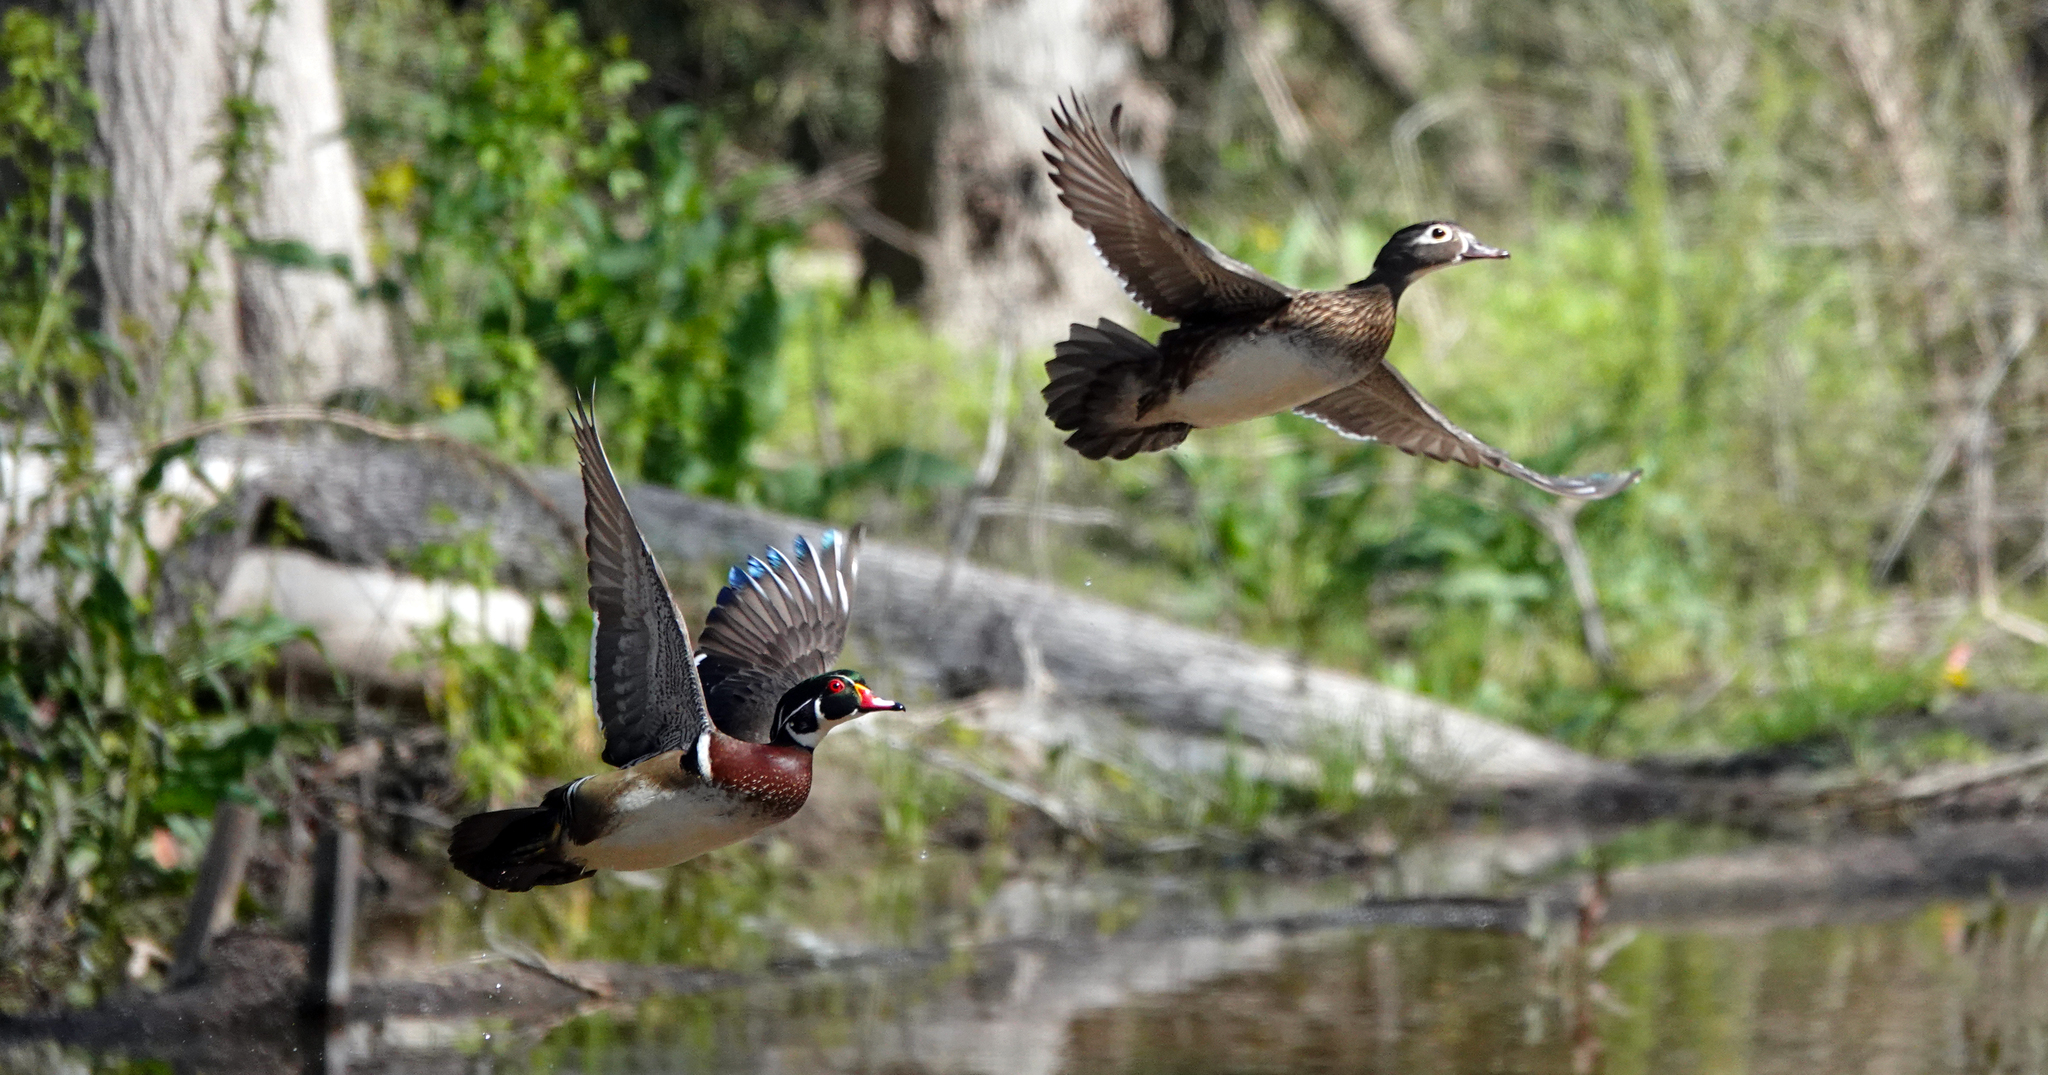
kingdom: Animalia
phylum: Chordata
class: Aves
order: Anseriformes
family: Anatidae
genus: Aix
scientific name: Aix sponsa
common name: Wood duck
